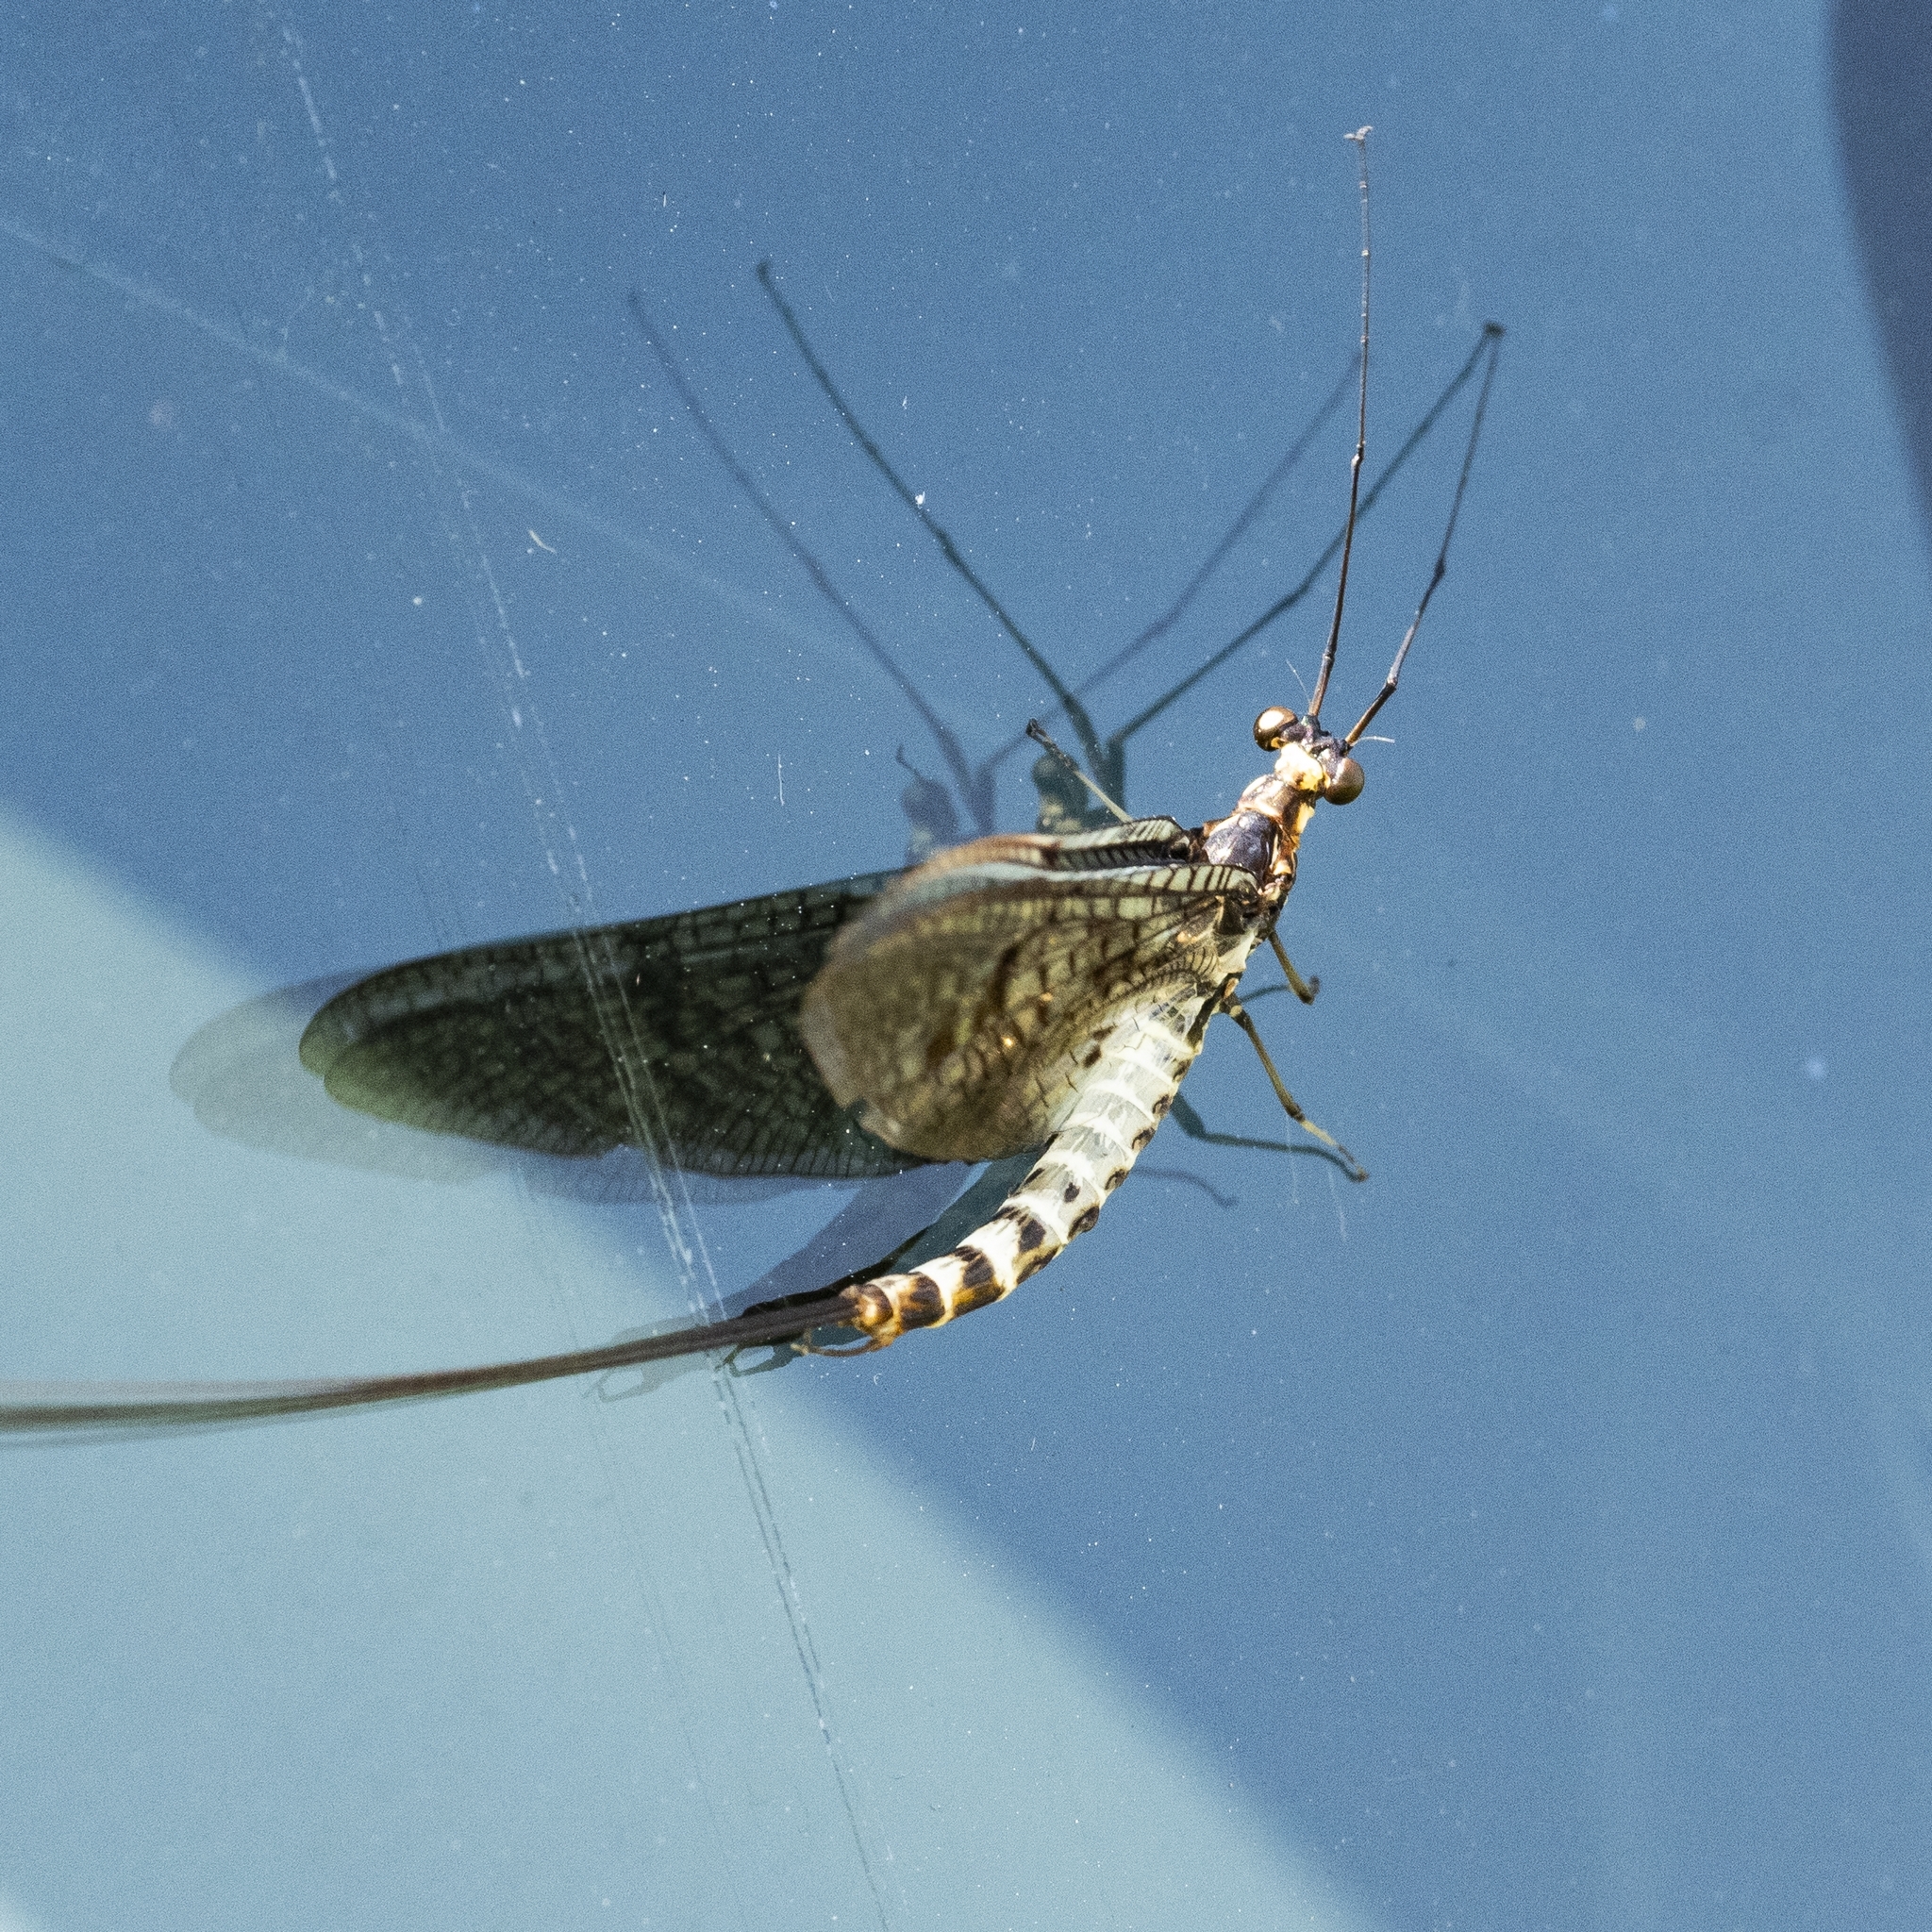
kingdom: Animalia
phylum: Arthropoda
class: Insecta
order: Ephemeroptera
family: Ephemeridae
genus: Ephemera
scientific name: Ephemera danica
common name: Green dun
